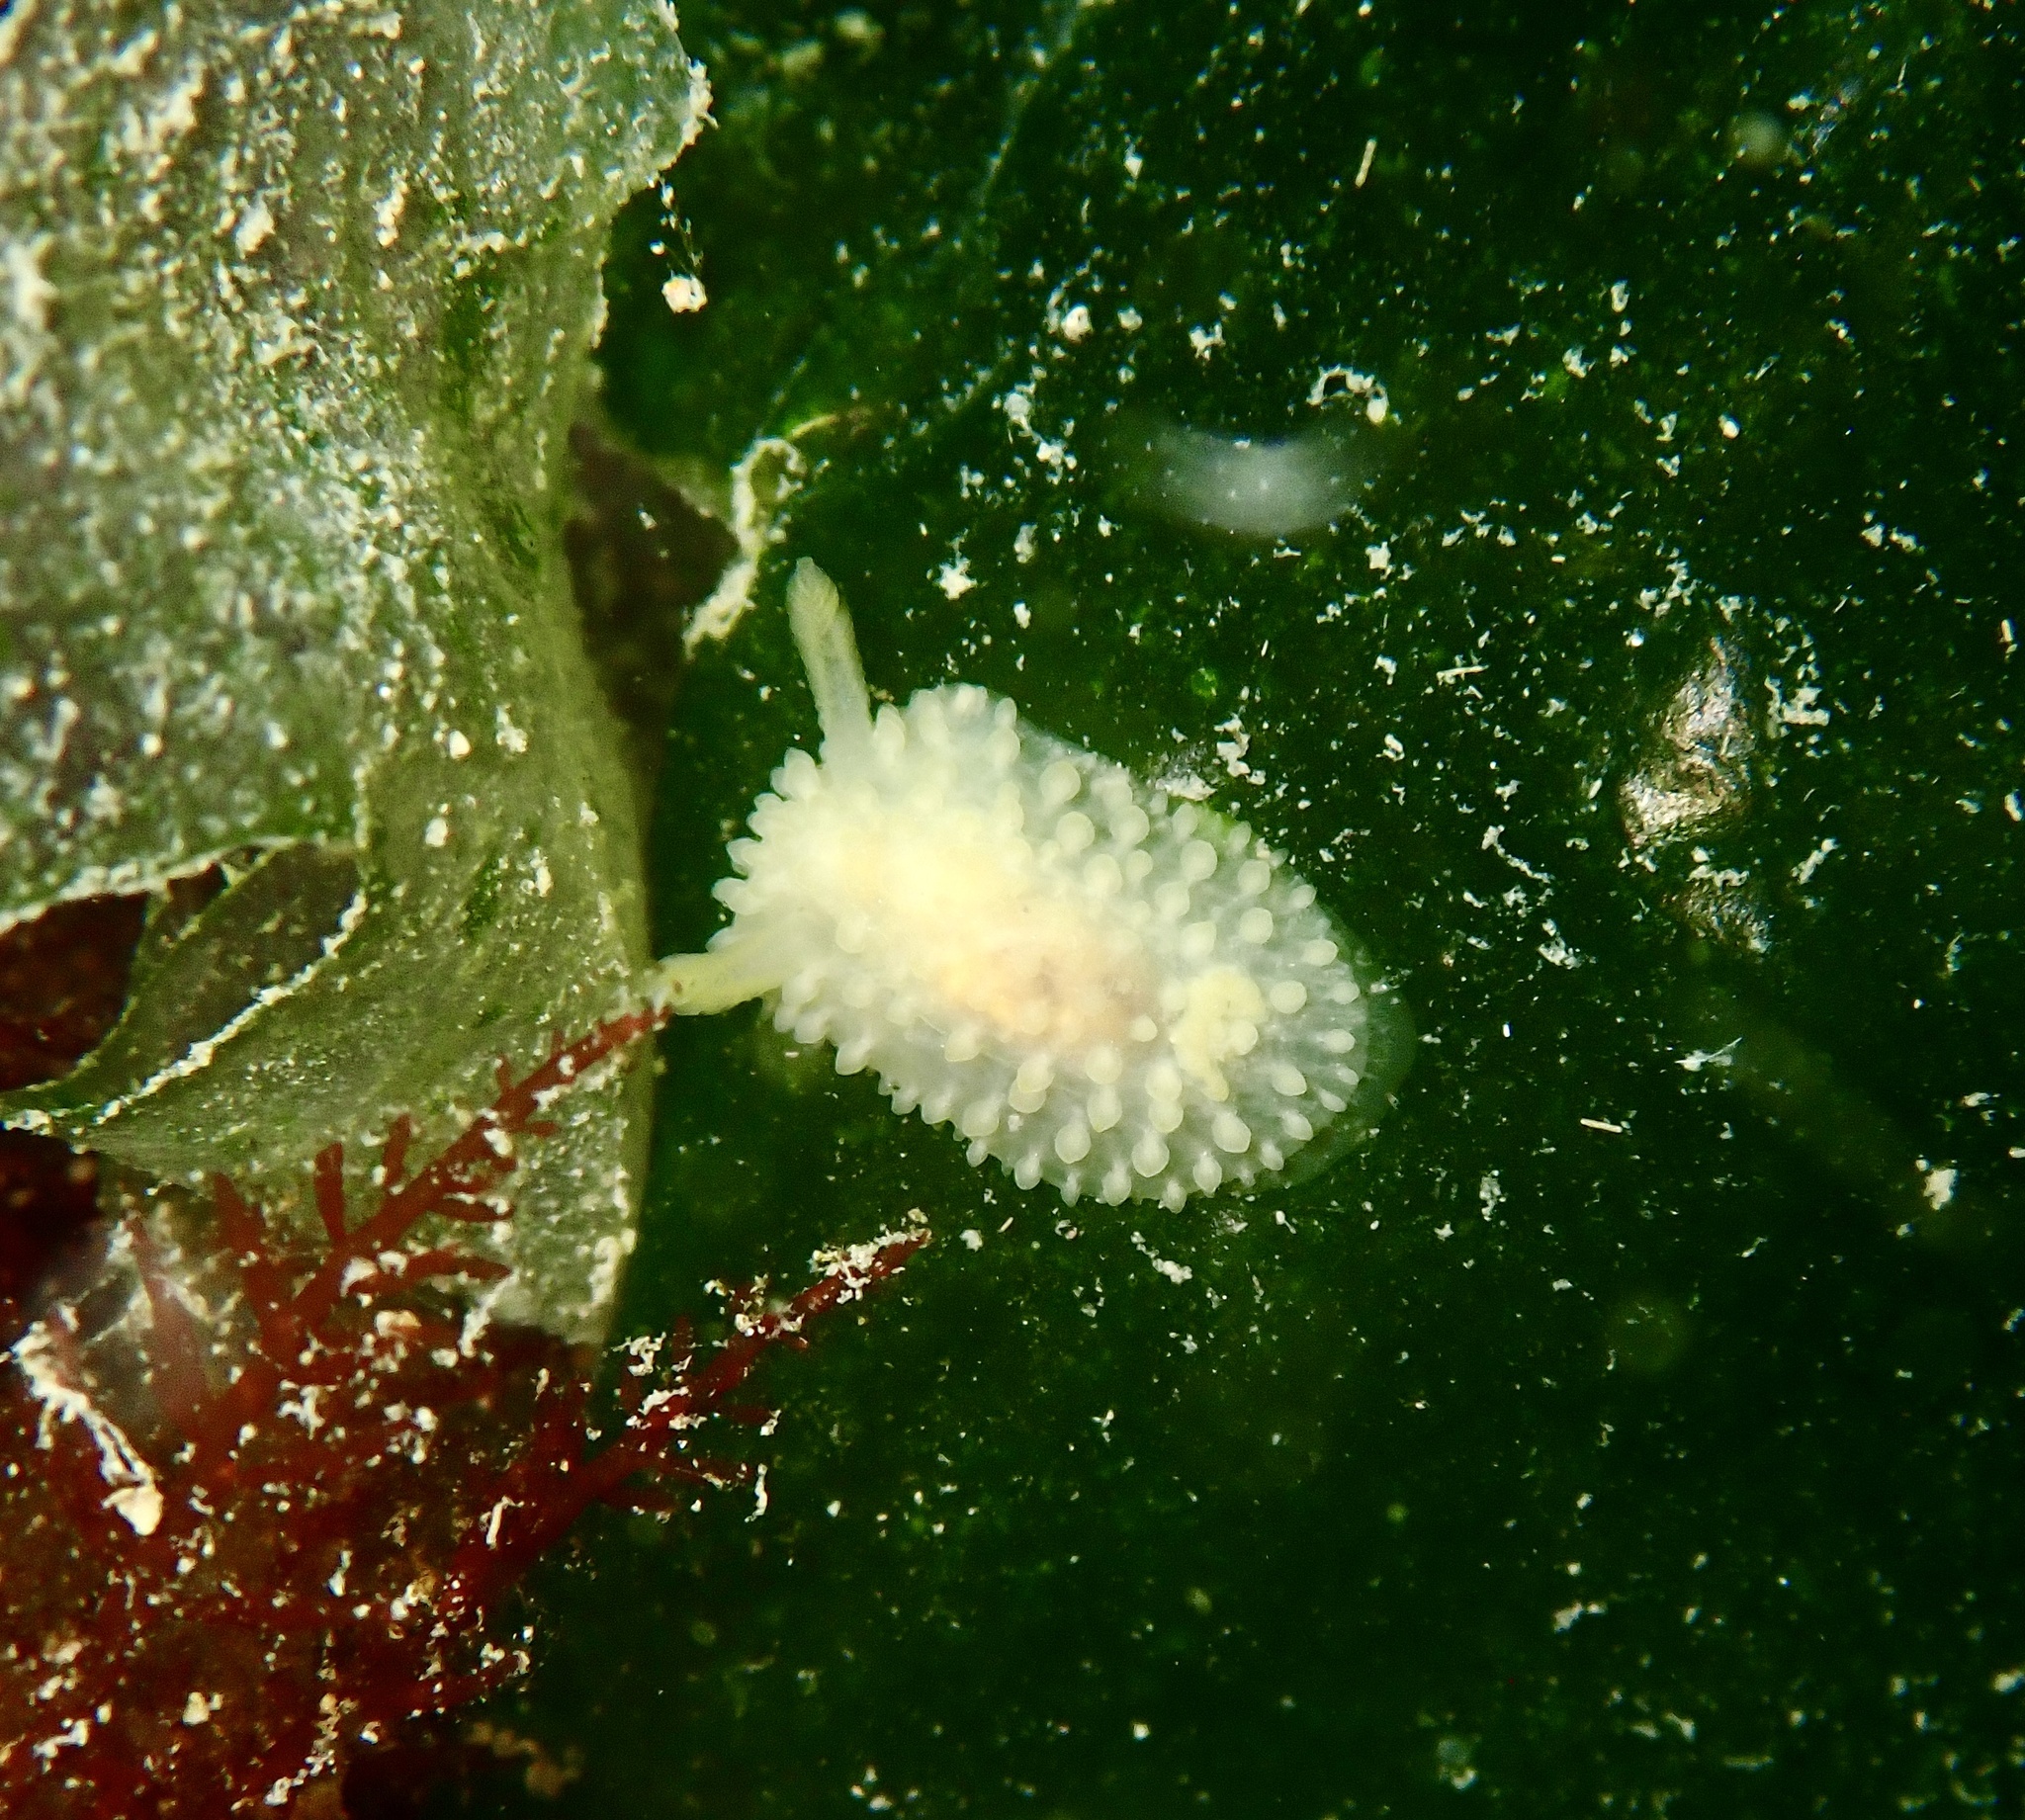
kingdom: Animalia
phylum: Mollusca
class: Gastropoda
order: Nudibranchia
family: Onchidorididae
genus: Adalaria
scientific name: Adalaria proxima
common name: False doris
